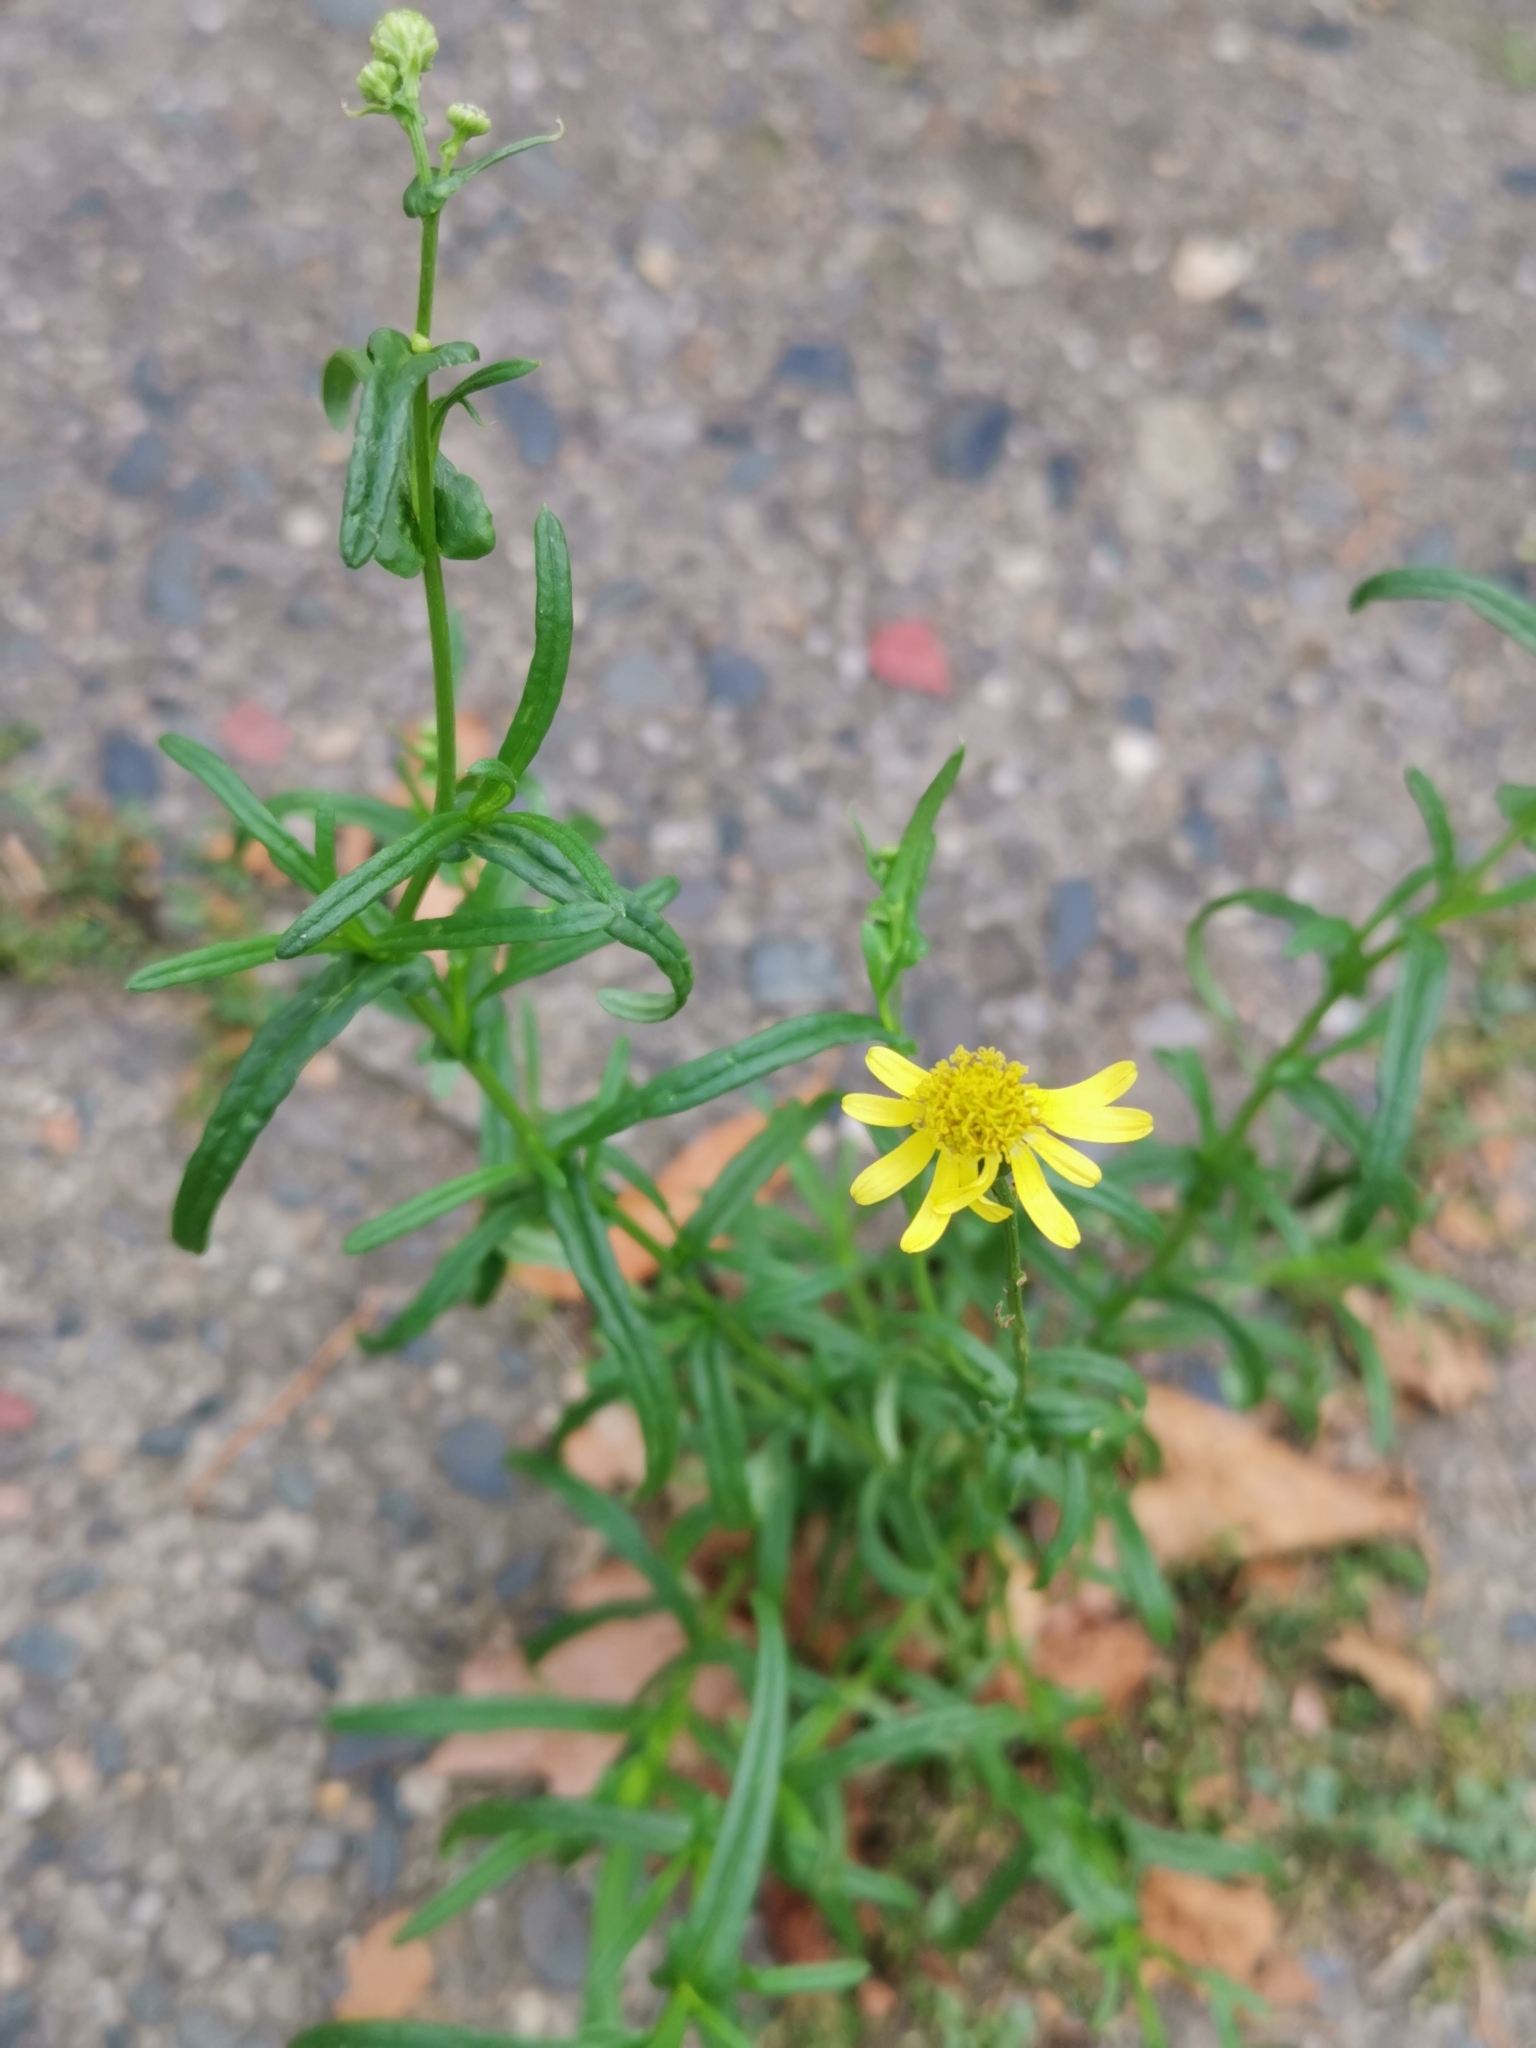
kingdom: Plantae
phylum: Tracheophyta
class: Magnoliopsida
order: Asterales
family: Asteraceae
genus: Senecio
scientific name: Senecio inaequidens
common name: Narrow-leaved ragwort
